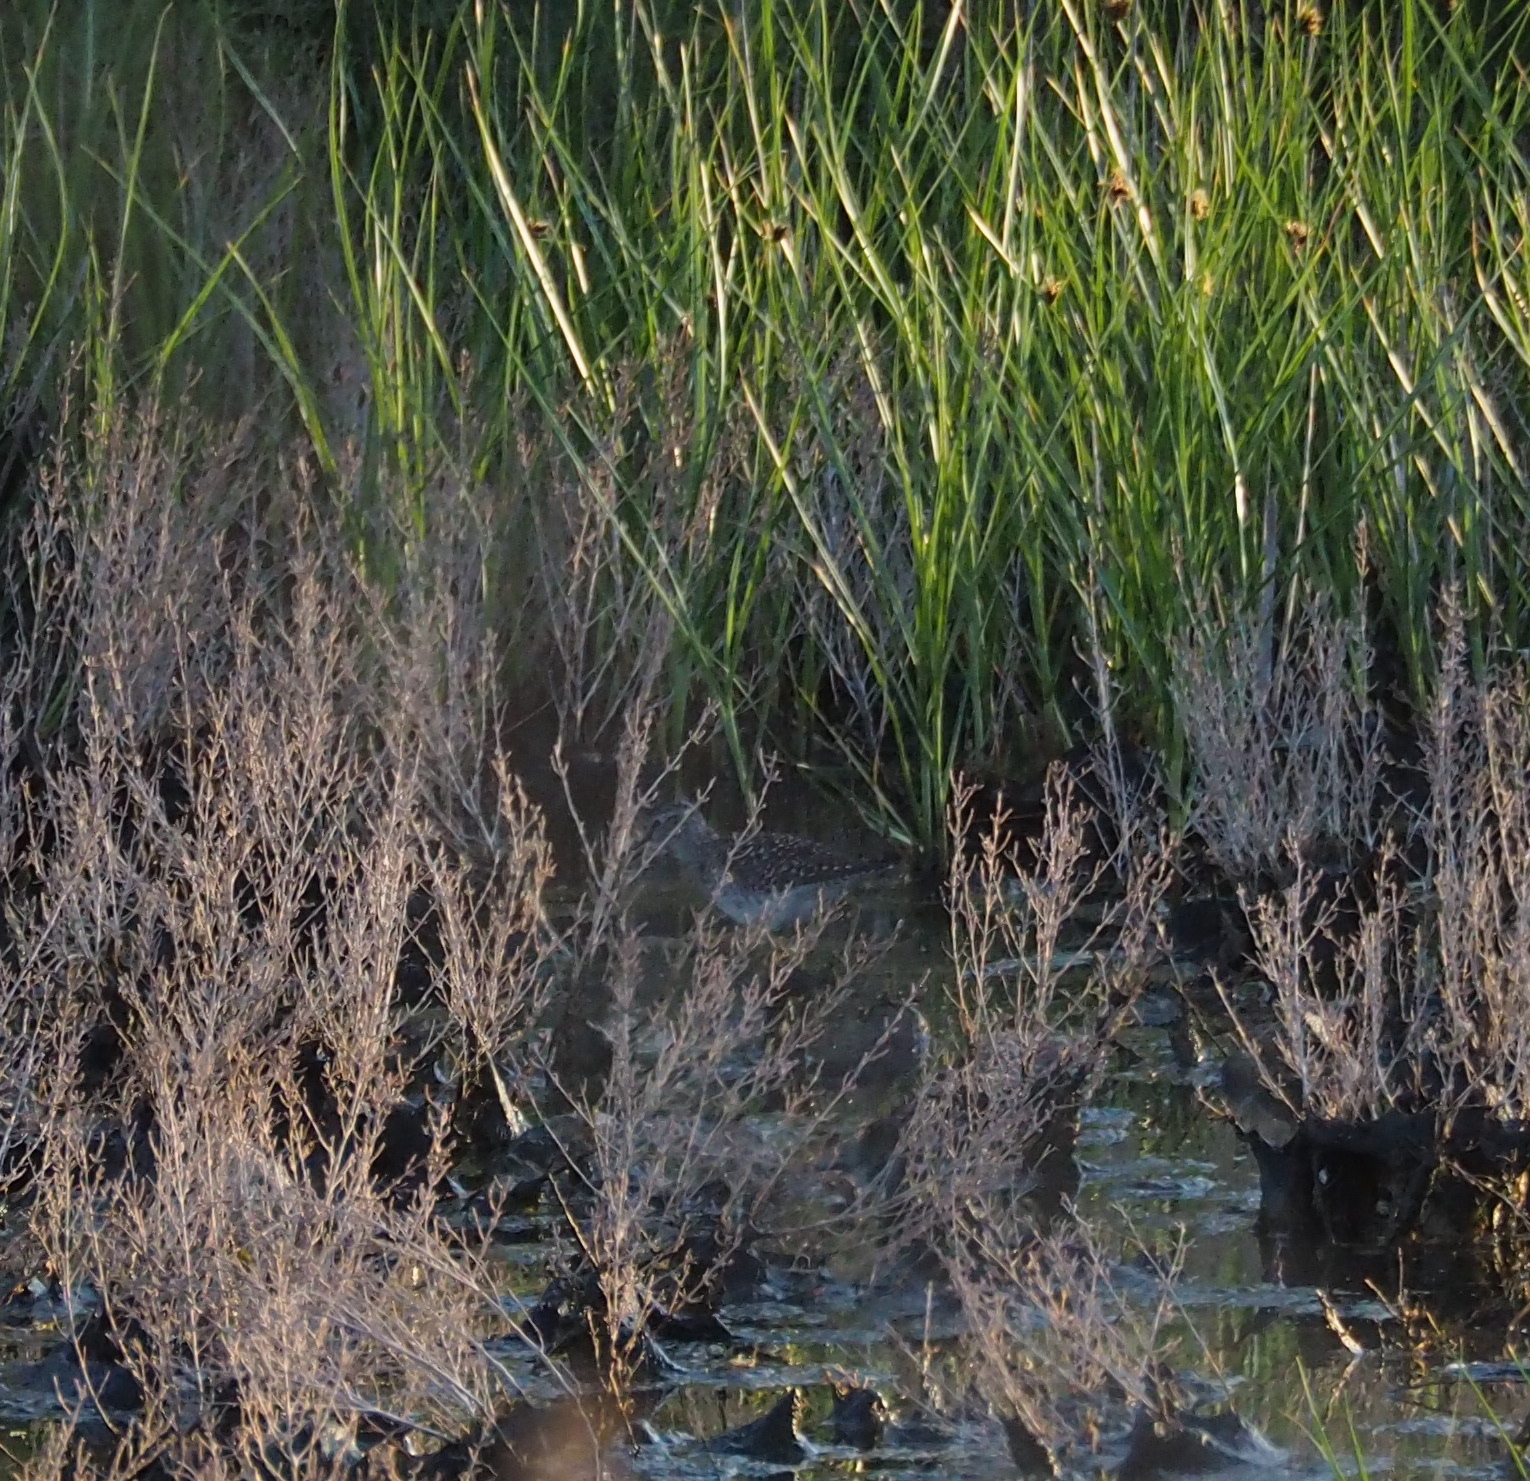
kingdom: Animalia
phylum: Chordata
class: Aves
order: Charadriiformes
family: Scolopacidae
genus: Tringa
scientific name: Tringa glareola
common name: Wood sandpiper
